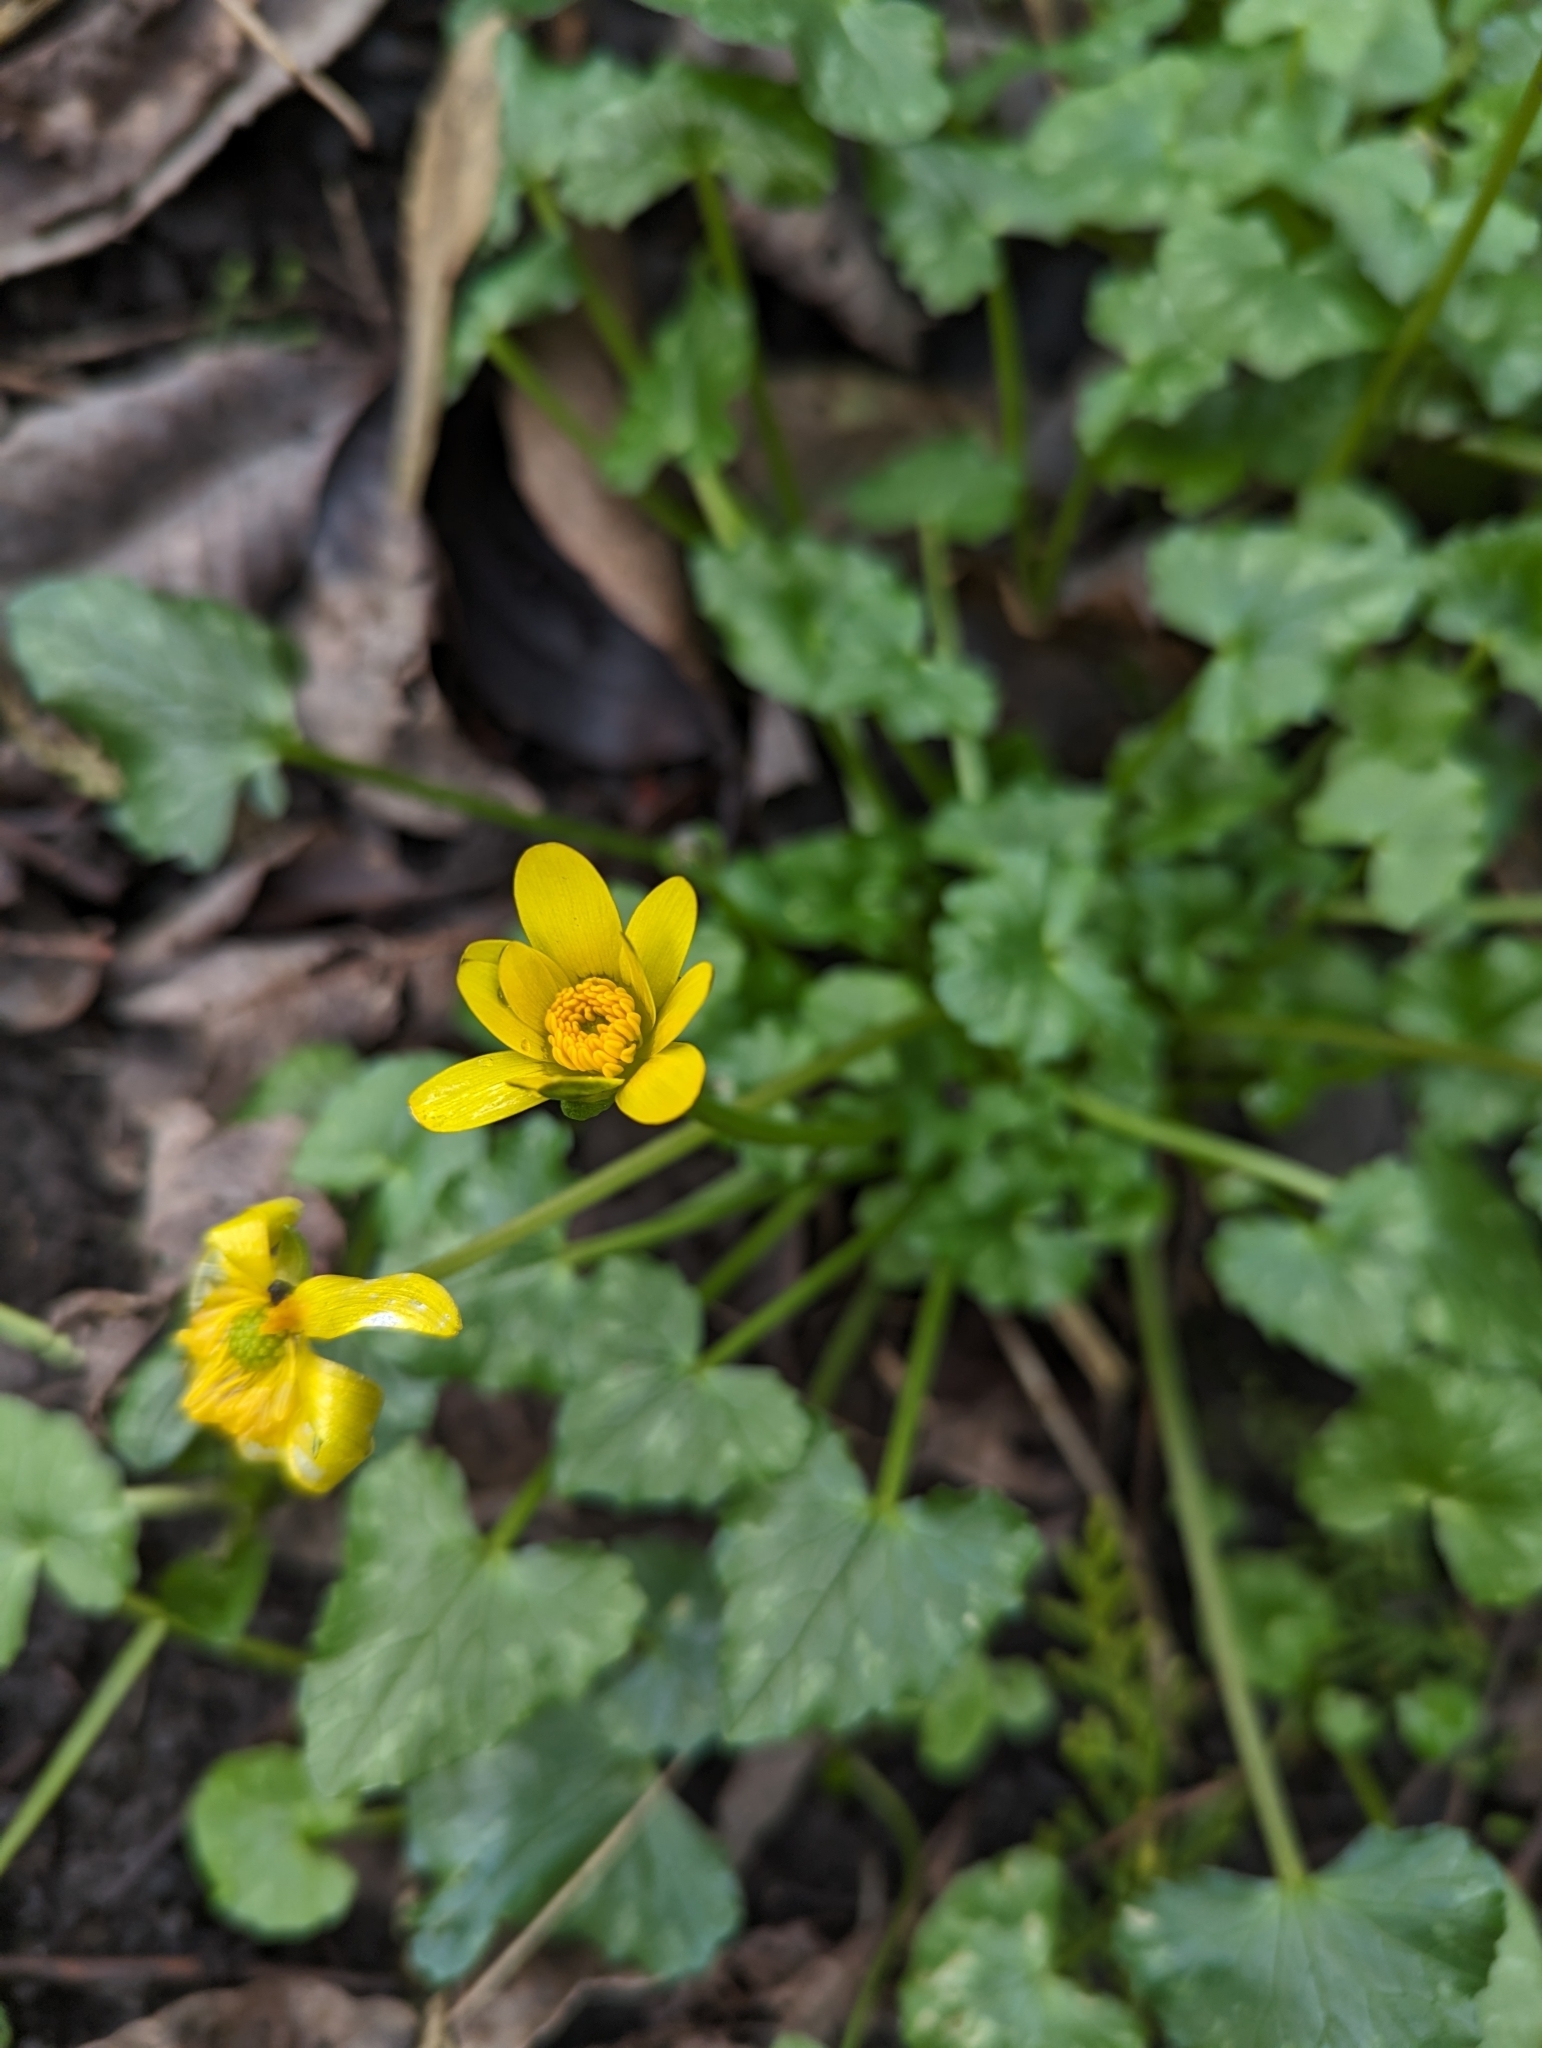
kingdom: Plantae
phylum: Tracheophyta
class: Magnoliopsida
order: Ranunculales
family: Ranunculaceae
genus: Ficaria
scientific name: Ficaria verna
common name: Lesser celandine
